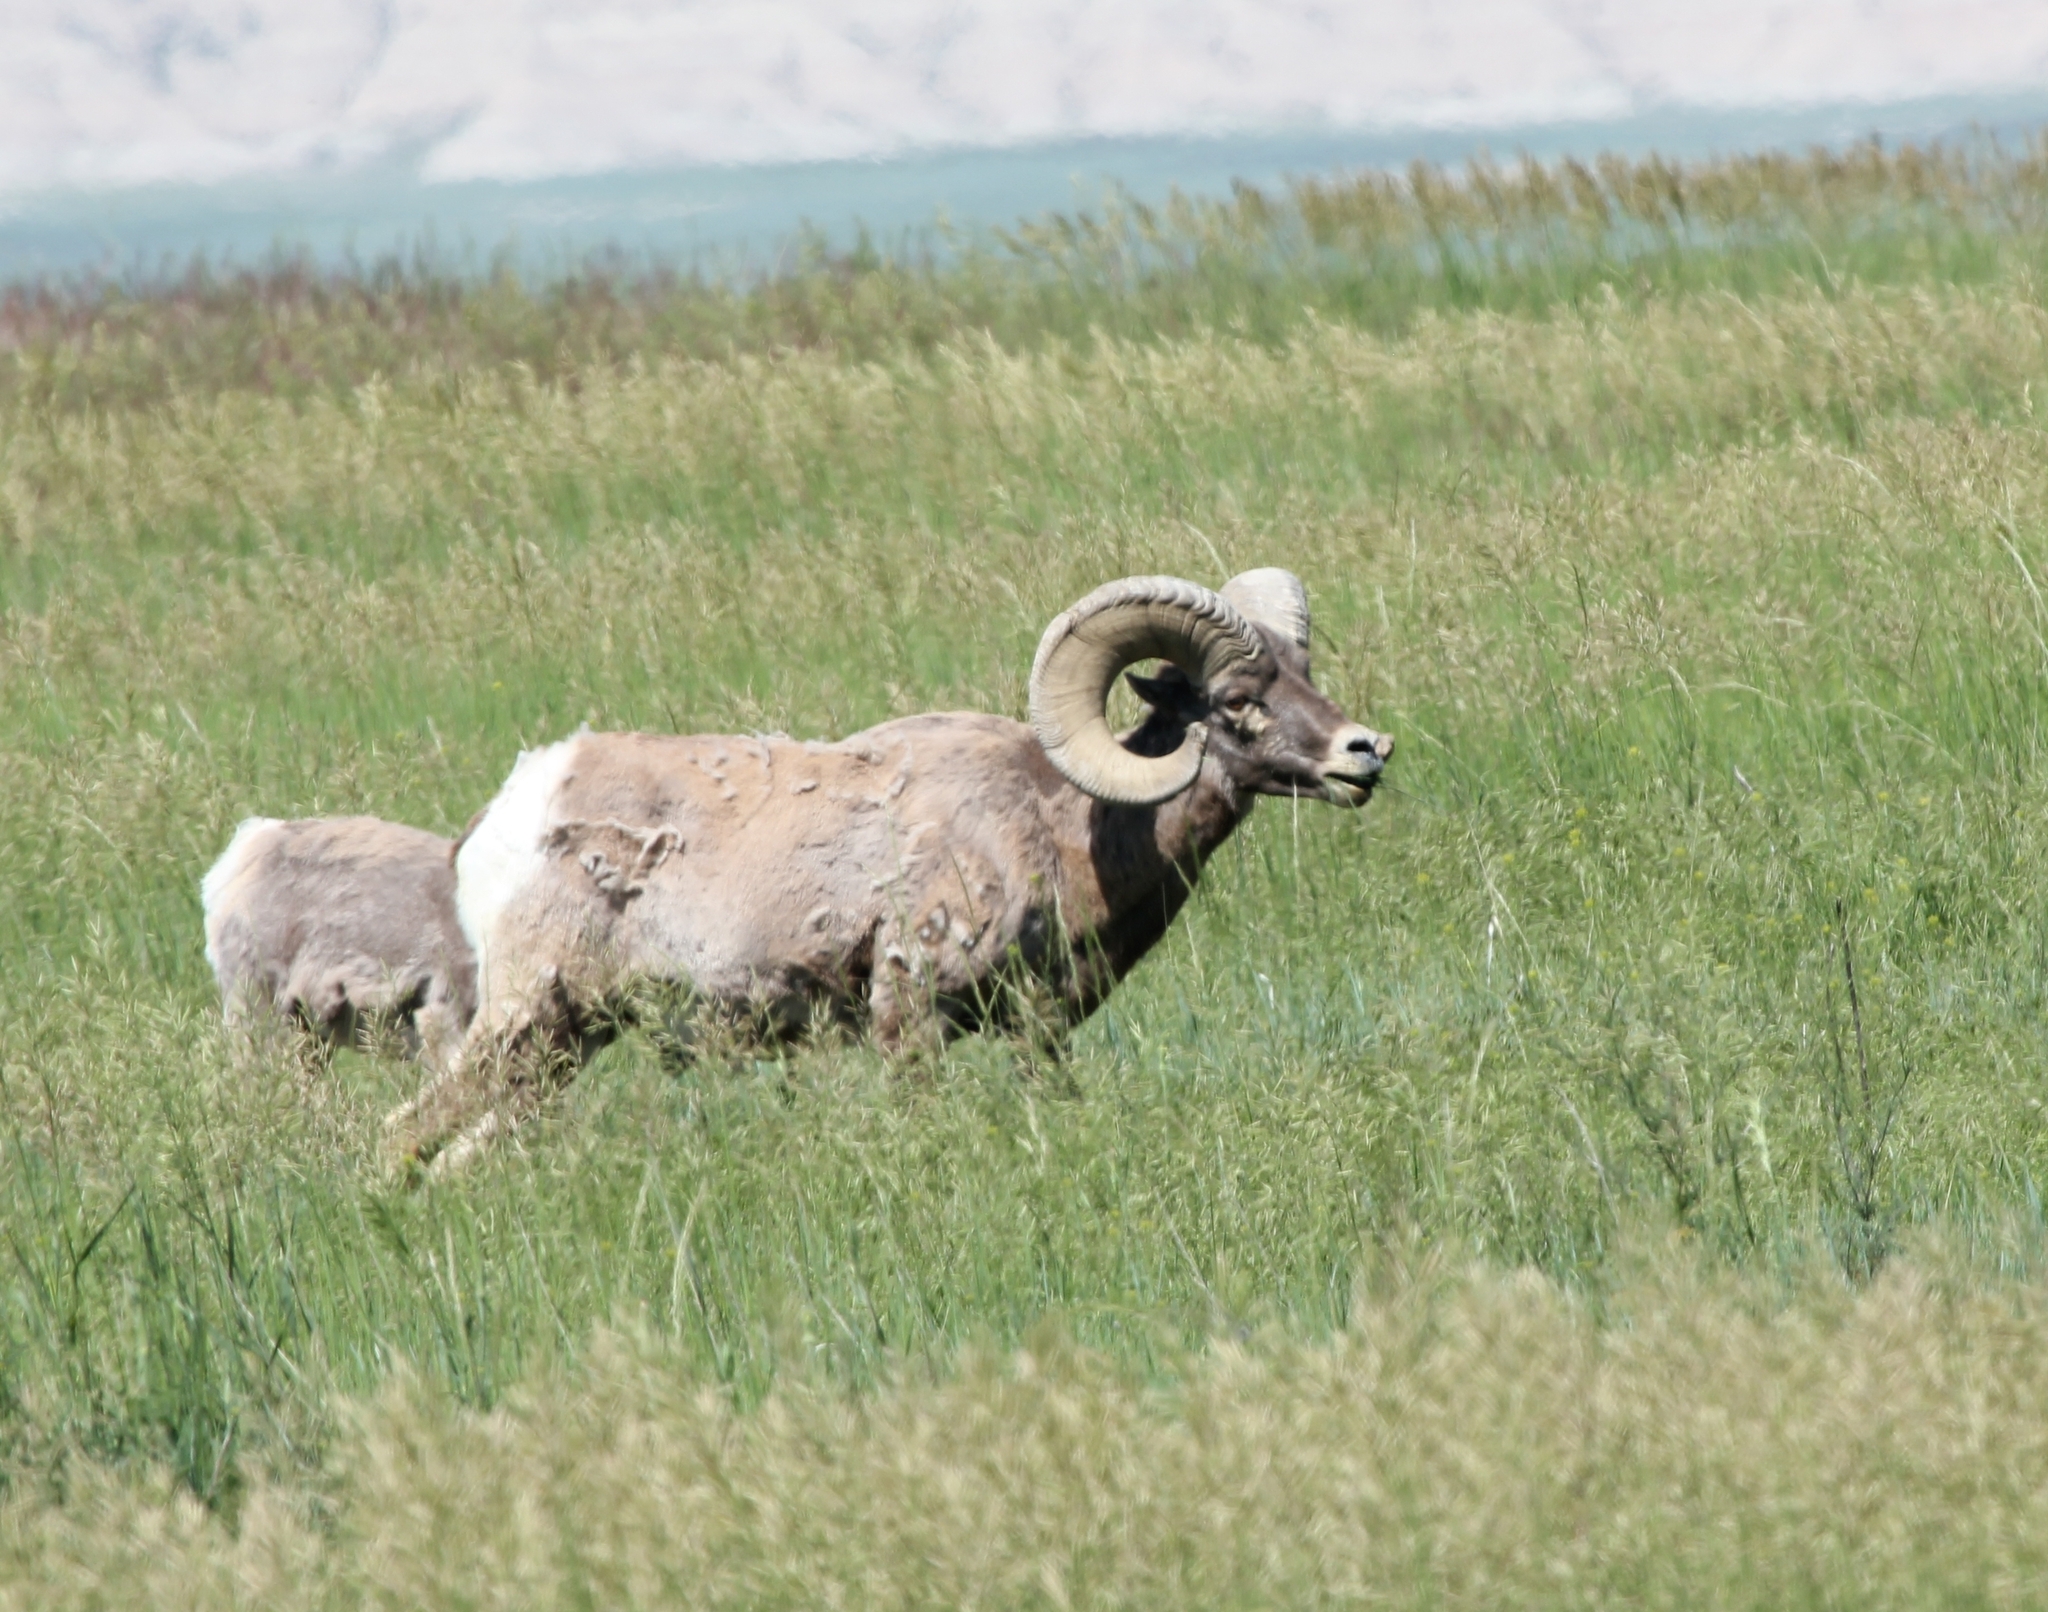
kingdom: Animalia
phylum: Chordata
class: Mammalia
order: Artiodactyla
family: Bovidae
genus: Ovis
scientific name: Ovis canadensis
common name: Bighorn sheep
